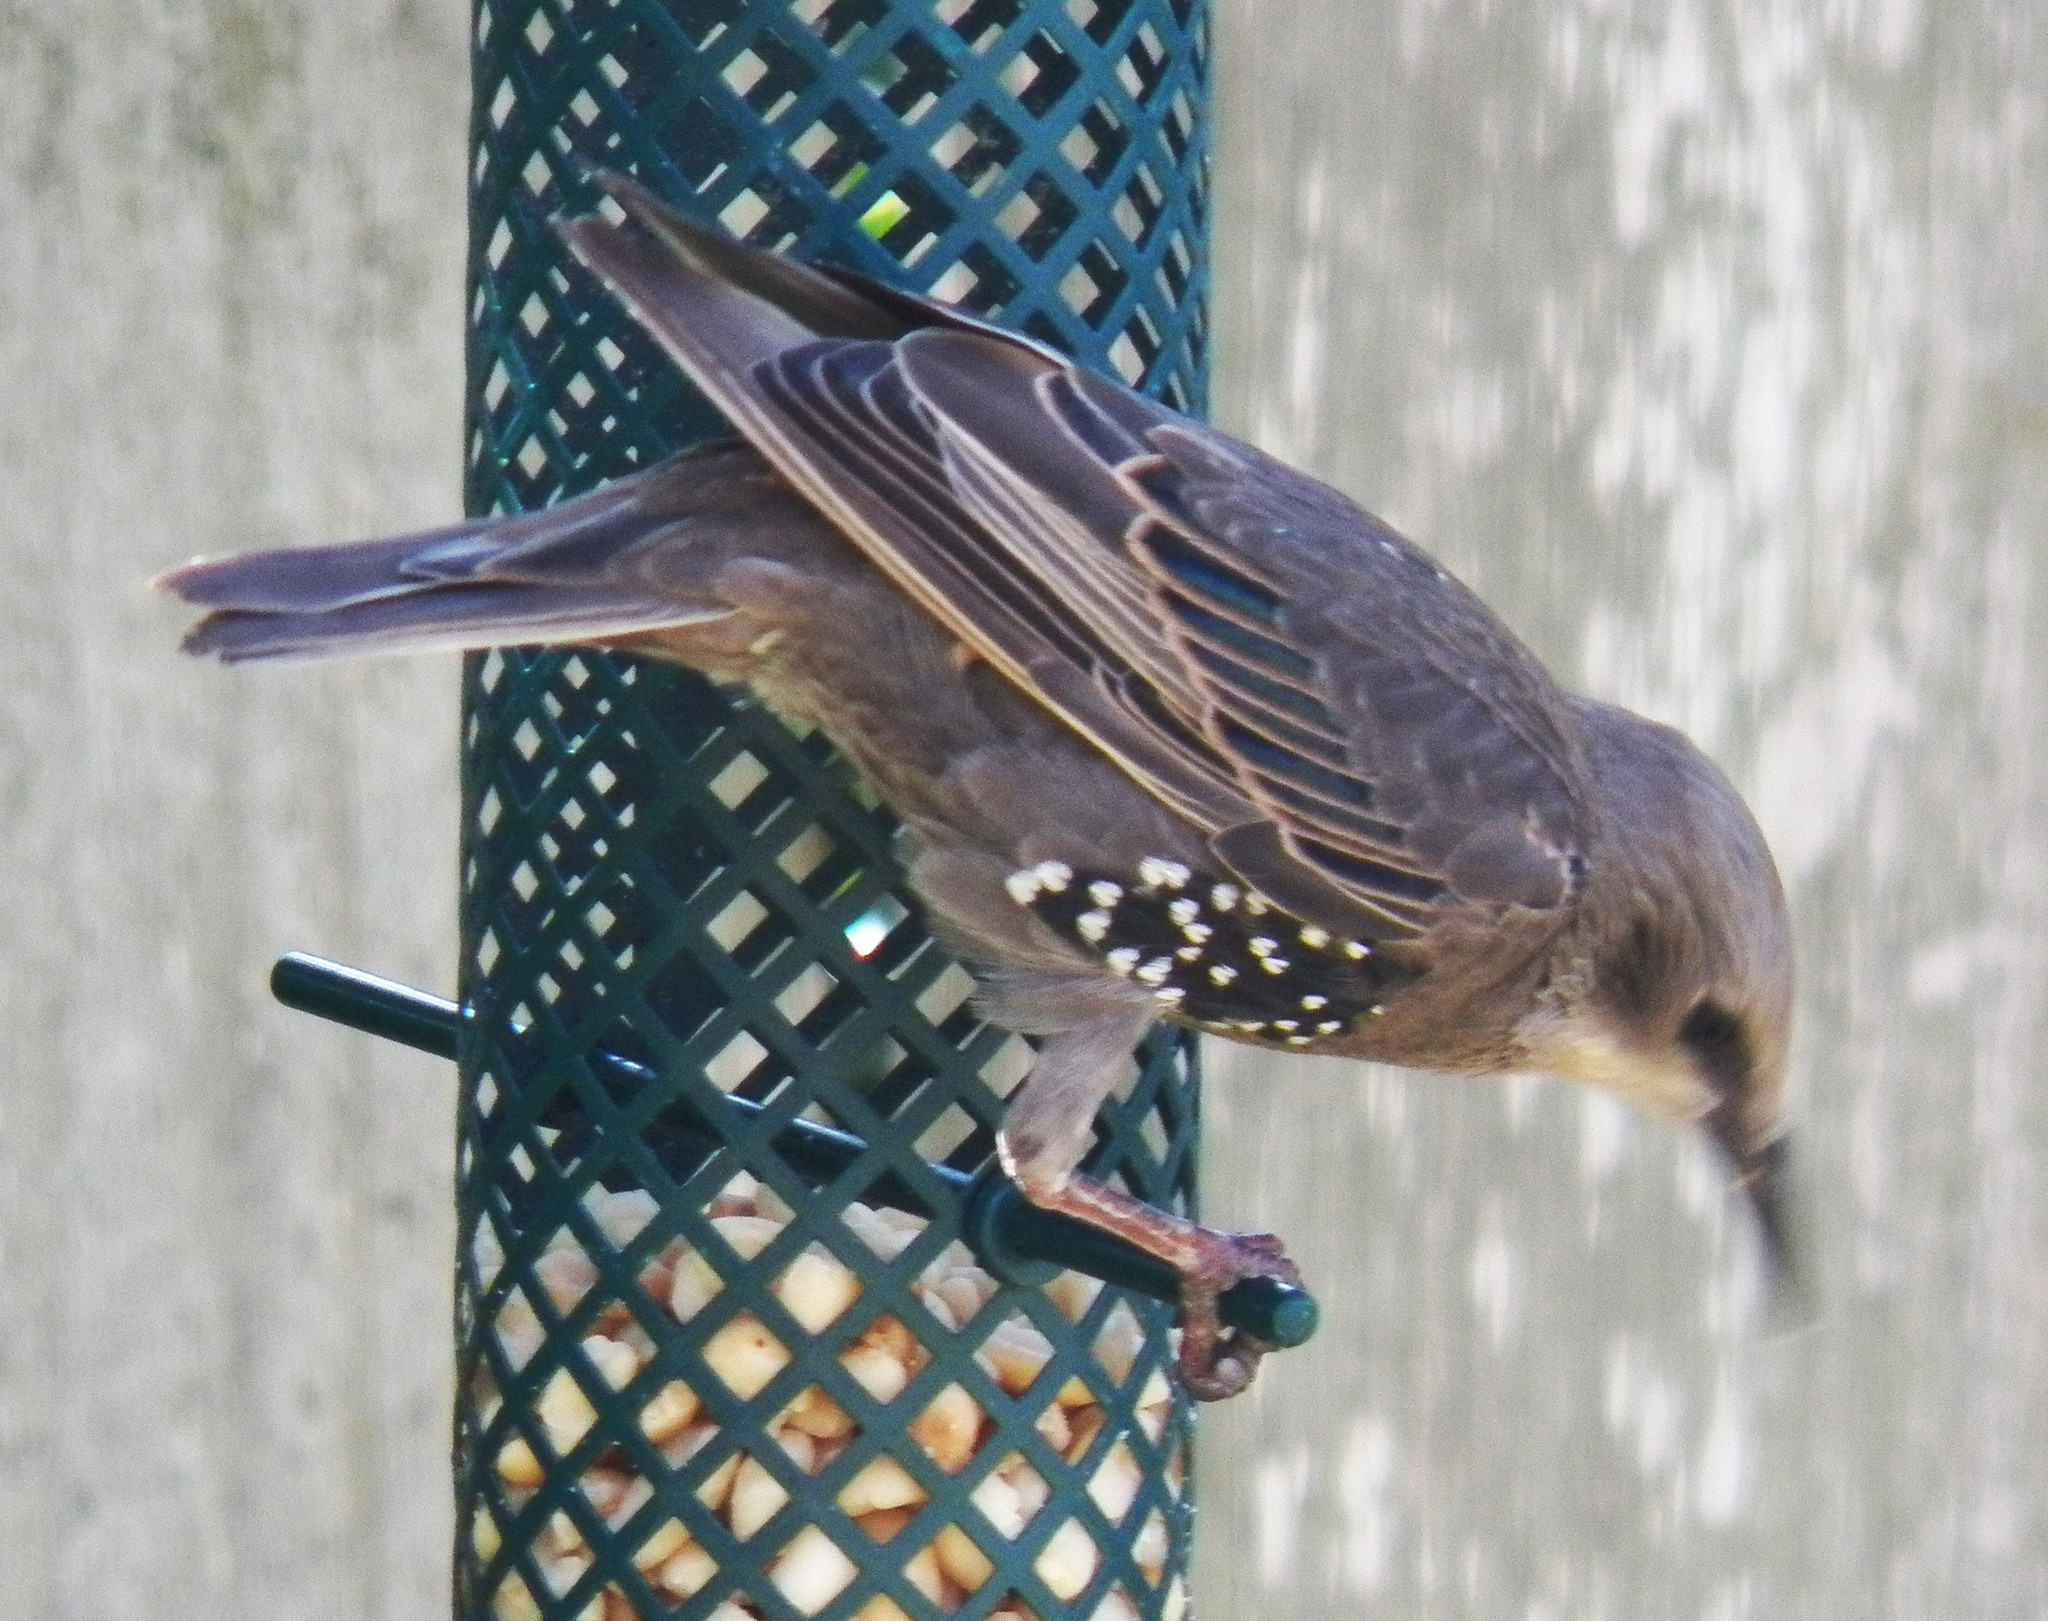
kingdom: Animalia
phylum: Chordata
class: Aves
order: Passeriformes
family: Sturnidae
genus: Sturnus
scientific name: Sturnus vulgaris
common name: Common starling
